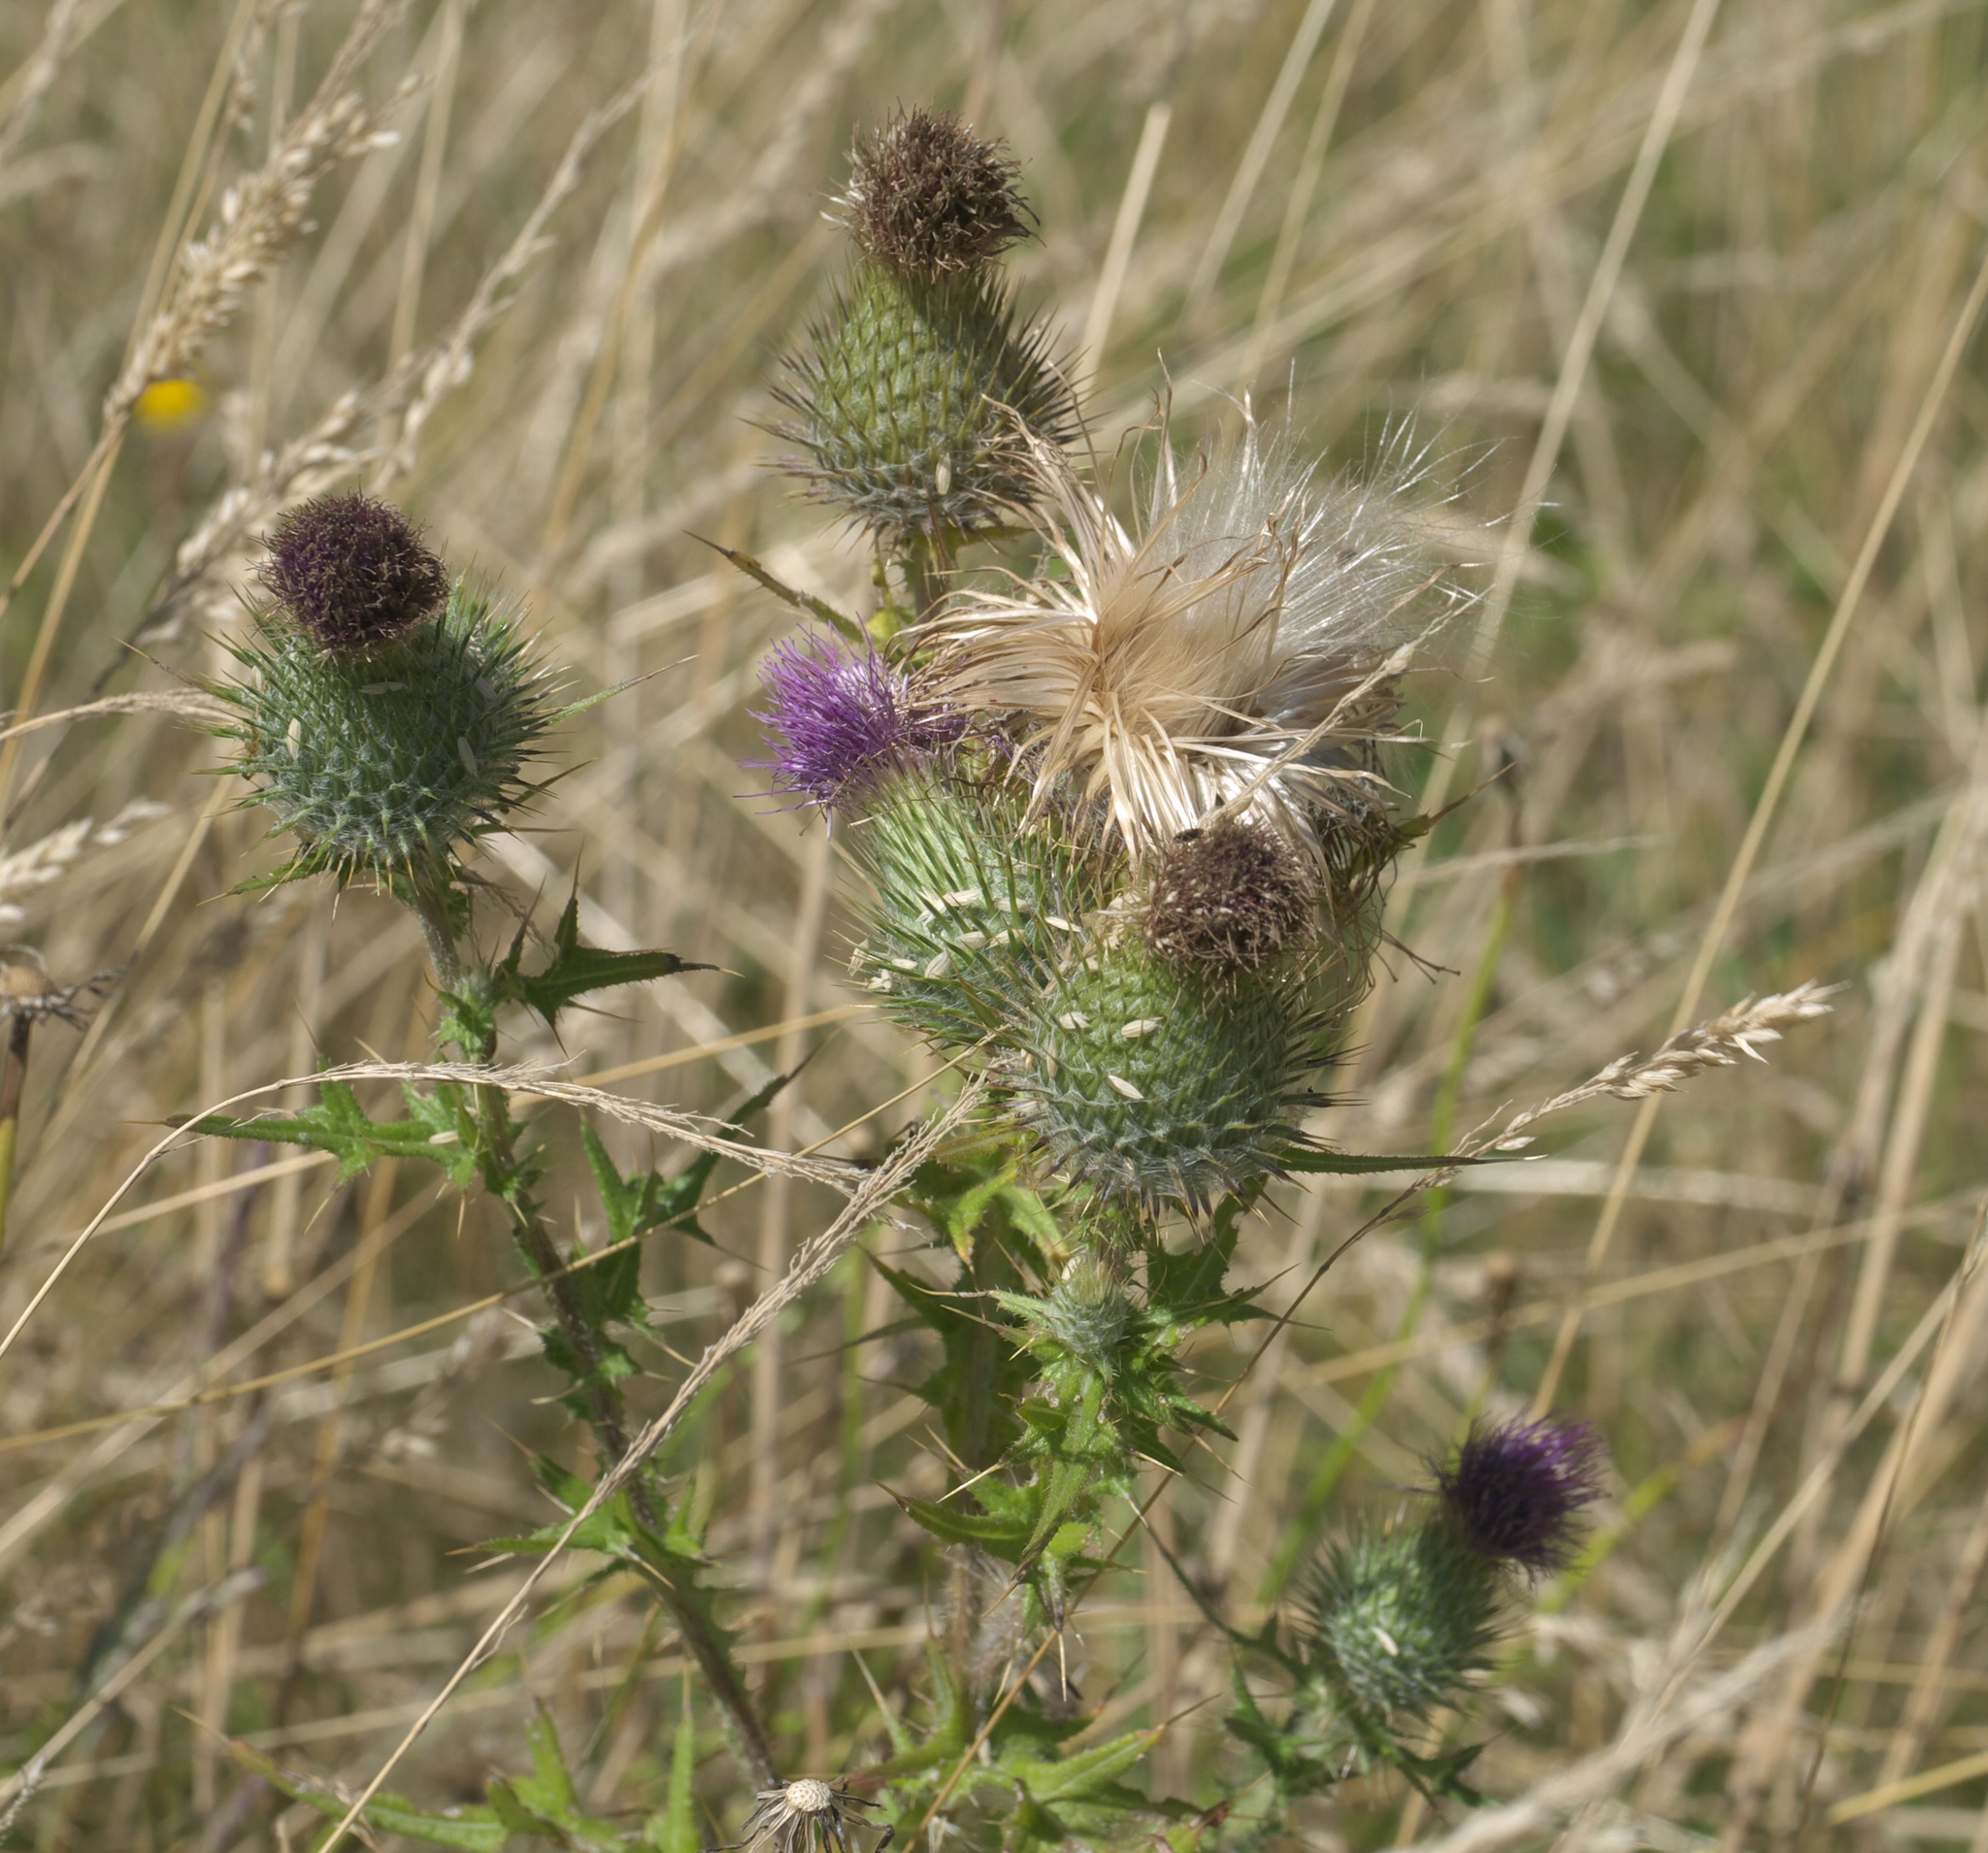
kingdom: Plantae
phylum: Tracheophyta
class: Magnoliopsida
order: Asterales
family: Asteraceae
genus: Cirsium
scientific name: Cirsium vulgare
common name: Bull thistle
